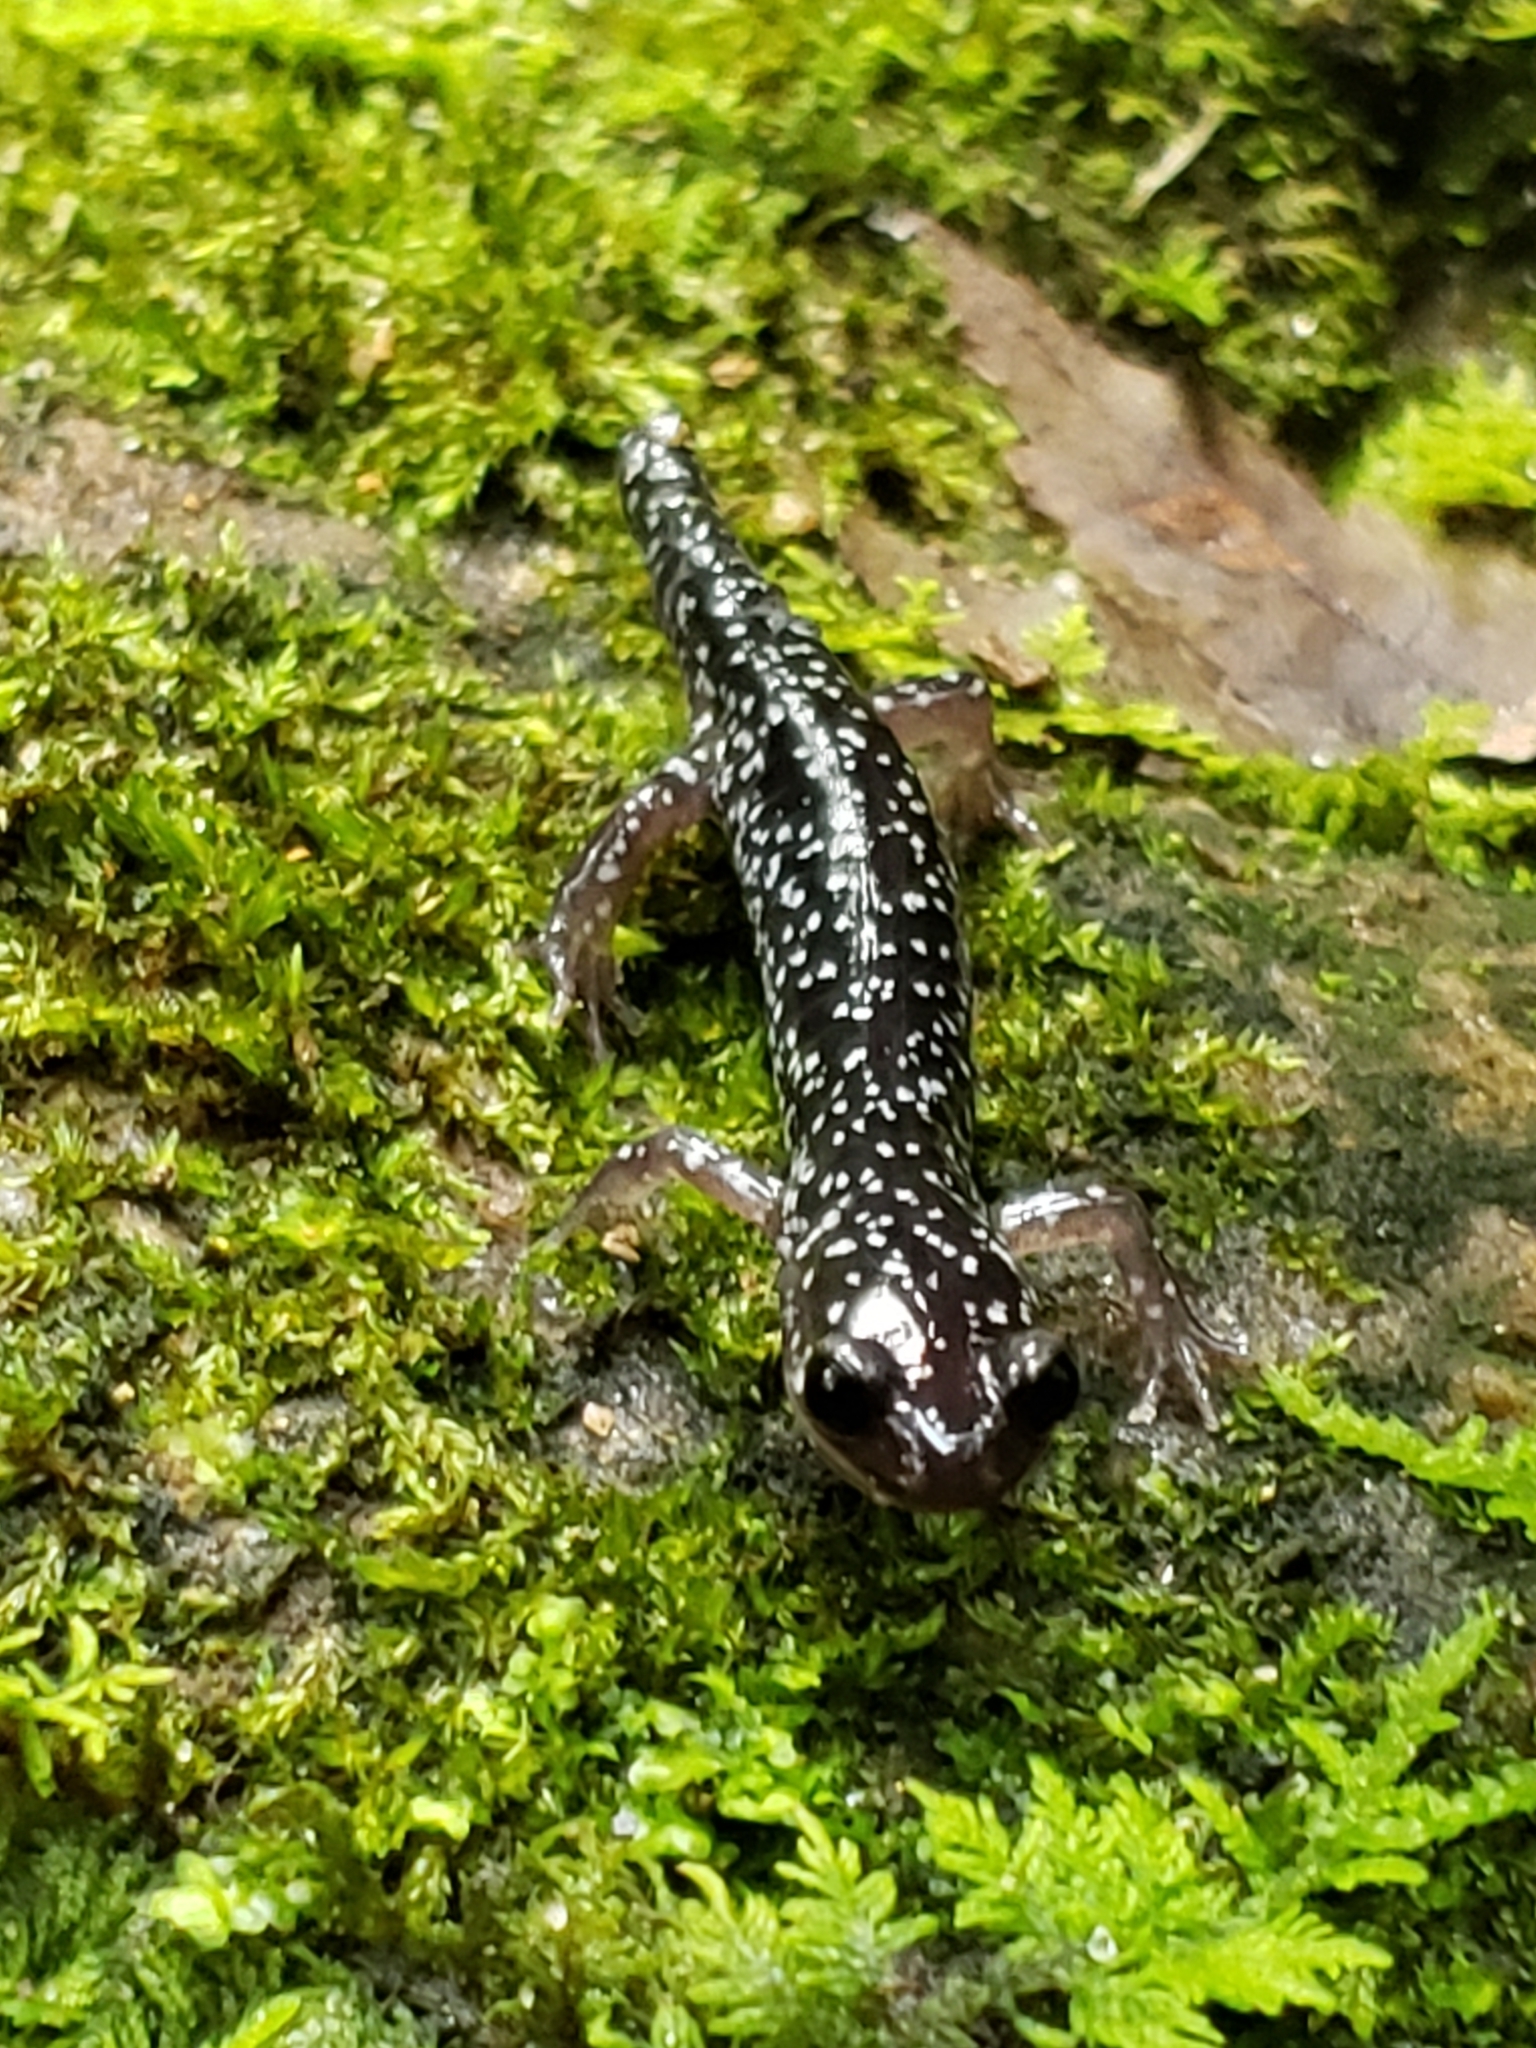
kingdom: Animalia
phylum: Chordata
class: Amphibia
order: Caudata
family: Plethodontidae
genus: Plethodon
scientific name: Plethodon cylindraceus
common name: White-spotted slimy salamander
